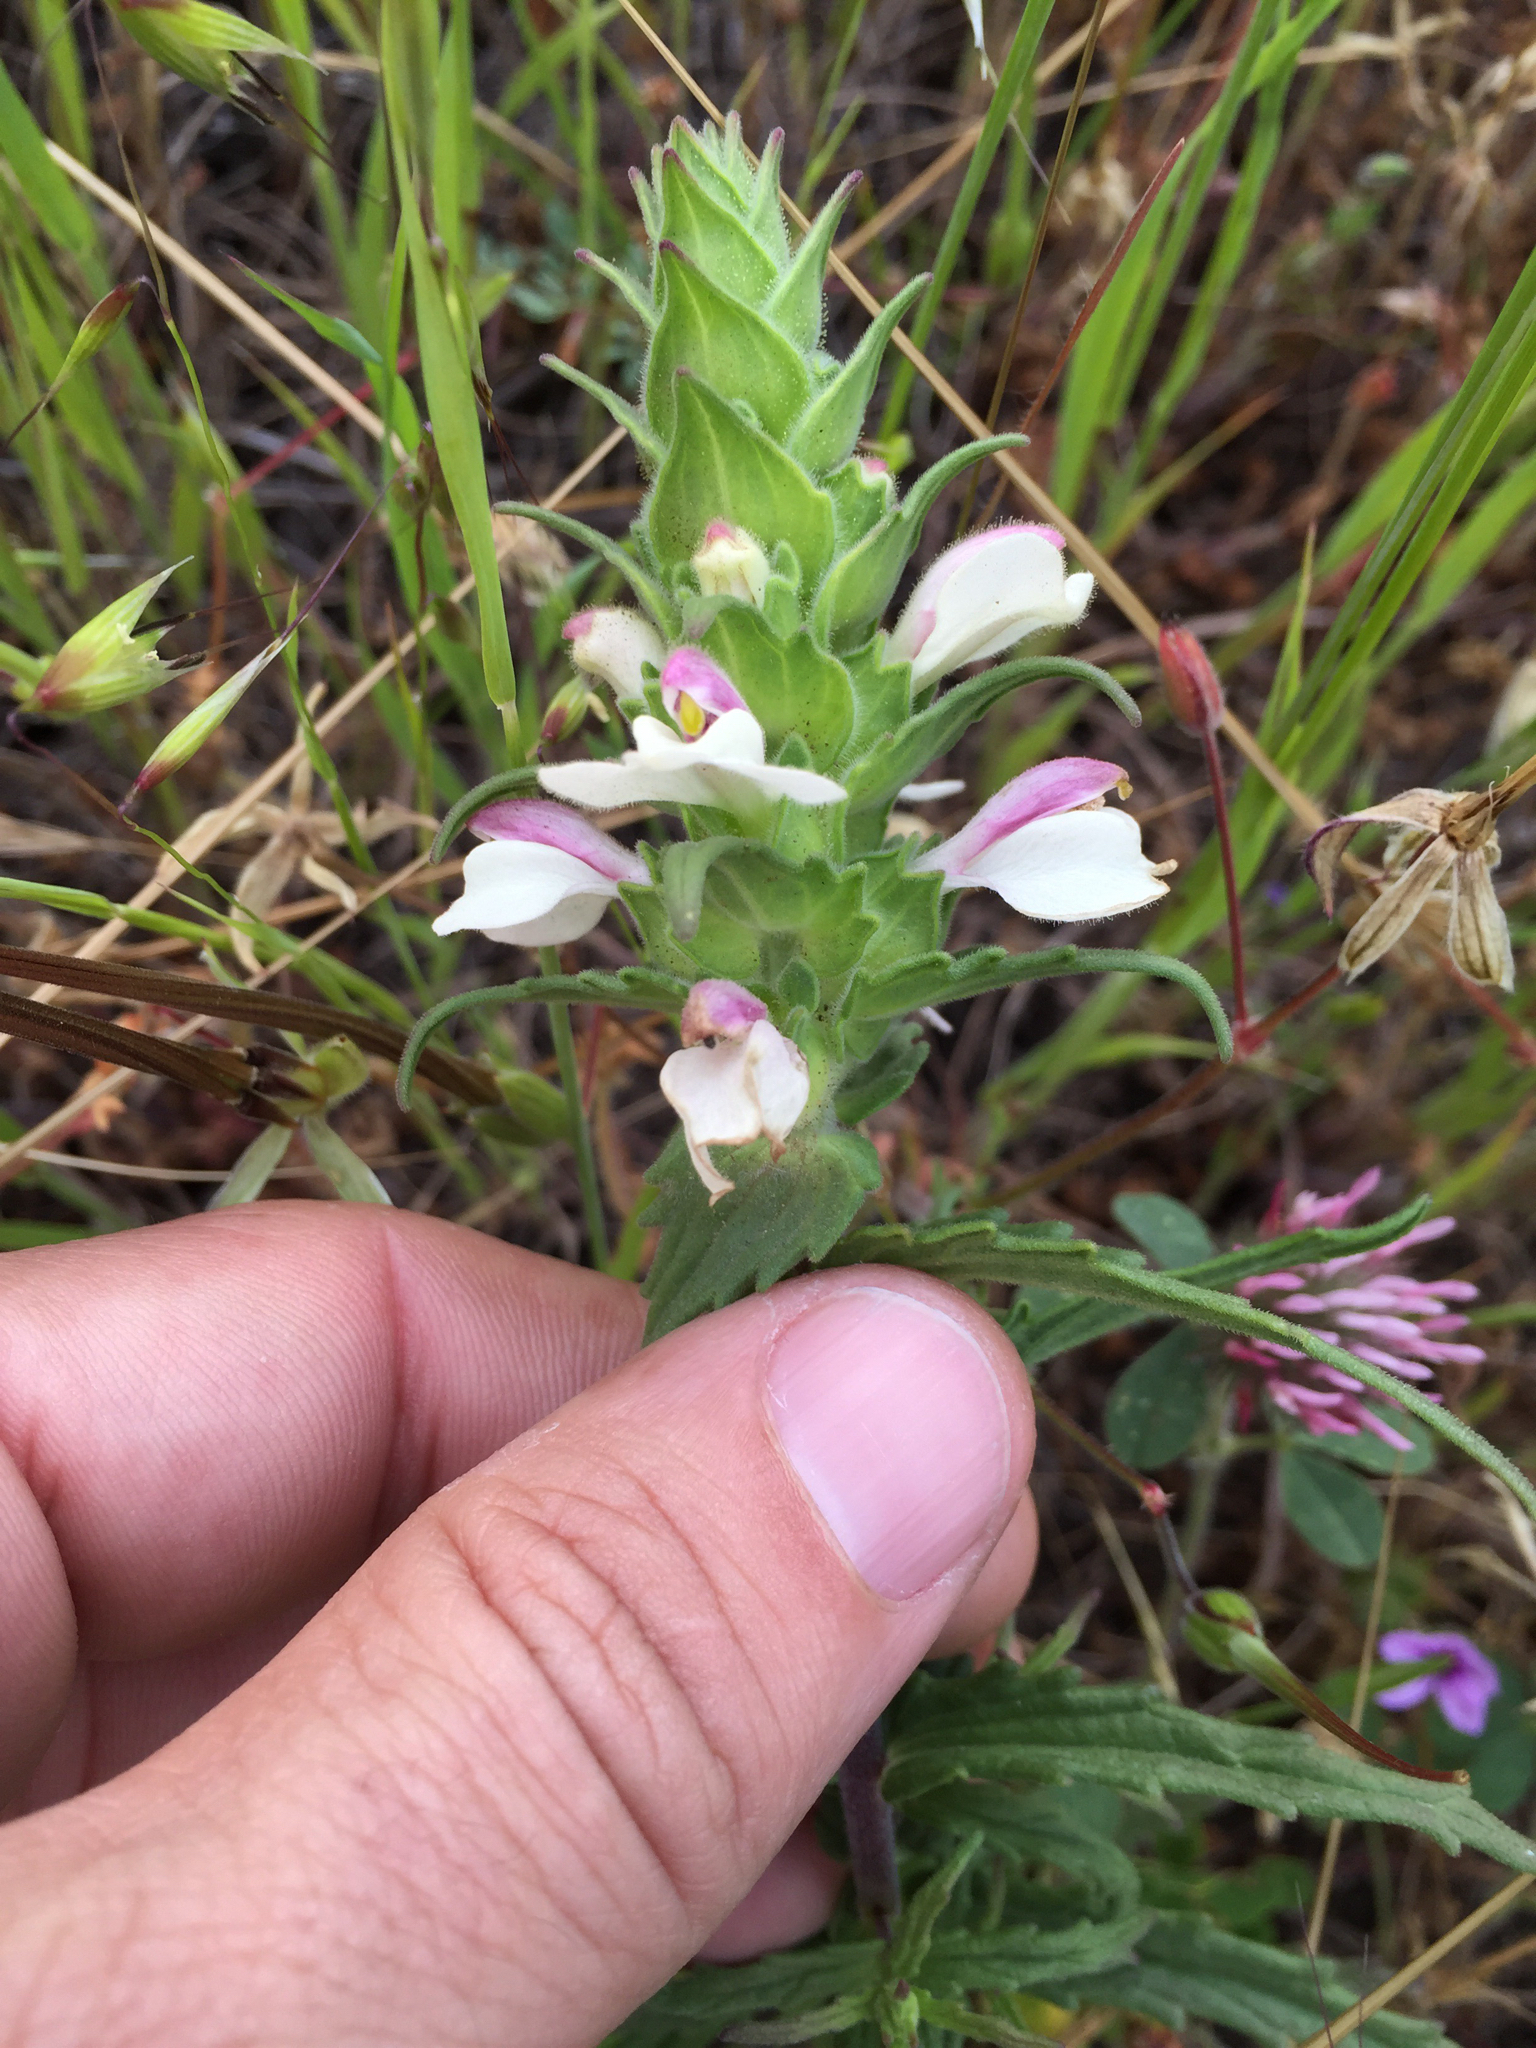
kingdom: Plantae
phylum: Tracheophyta
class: Magnoliopsida
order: Lamiales
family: Orobanchaceae
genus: Bellardia
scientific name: Bellardia trixago
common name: Mediterranean lineseed
